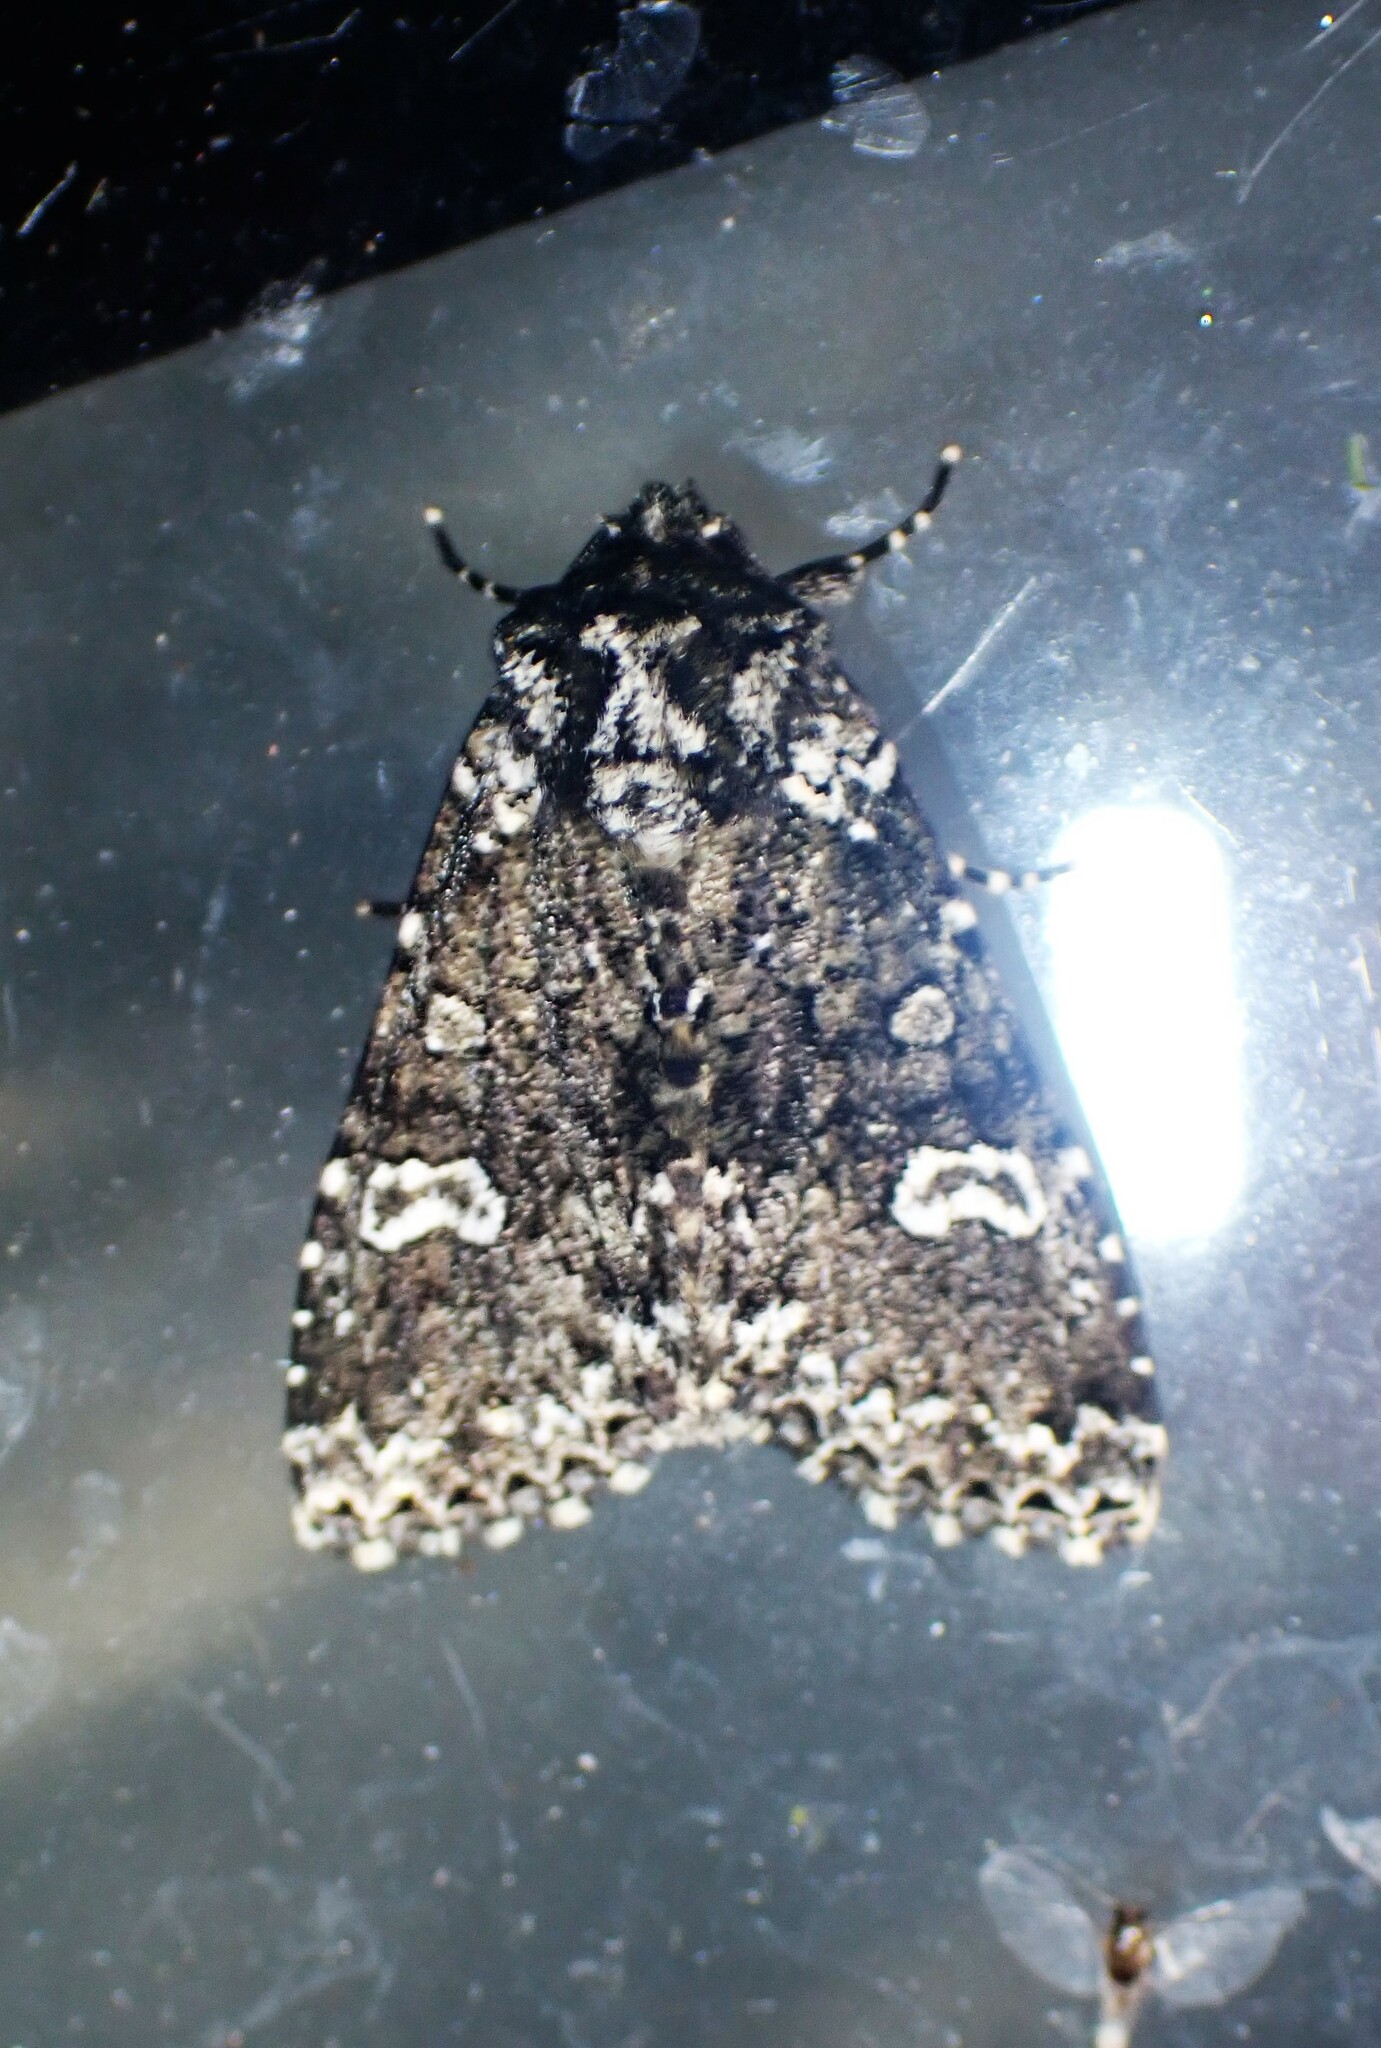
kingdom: Animalia
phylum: Arthropoda
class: Insecta
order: Lepidoptera
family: Noctuidae
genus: Melanchra
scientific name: Melanchra adjuncta
